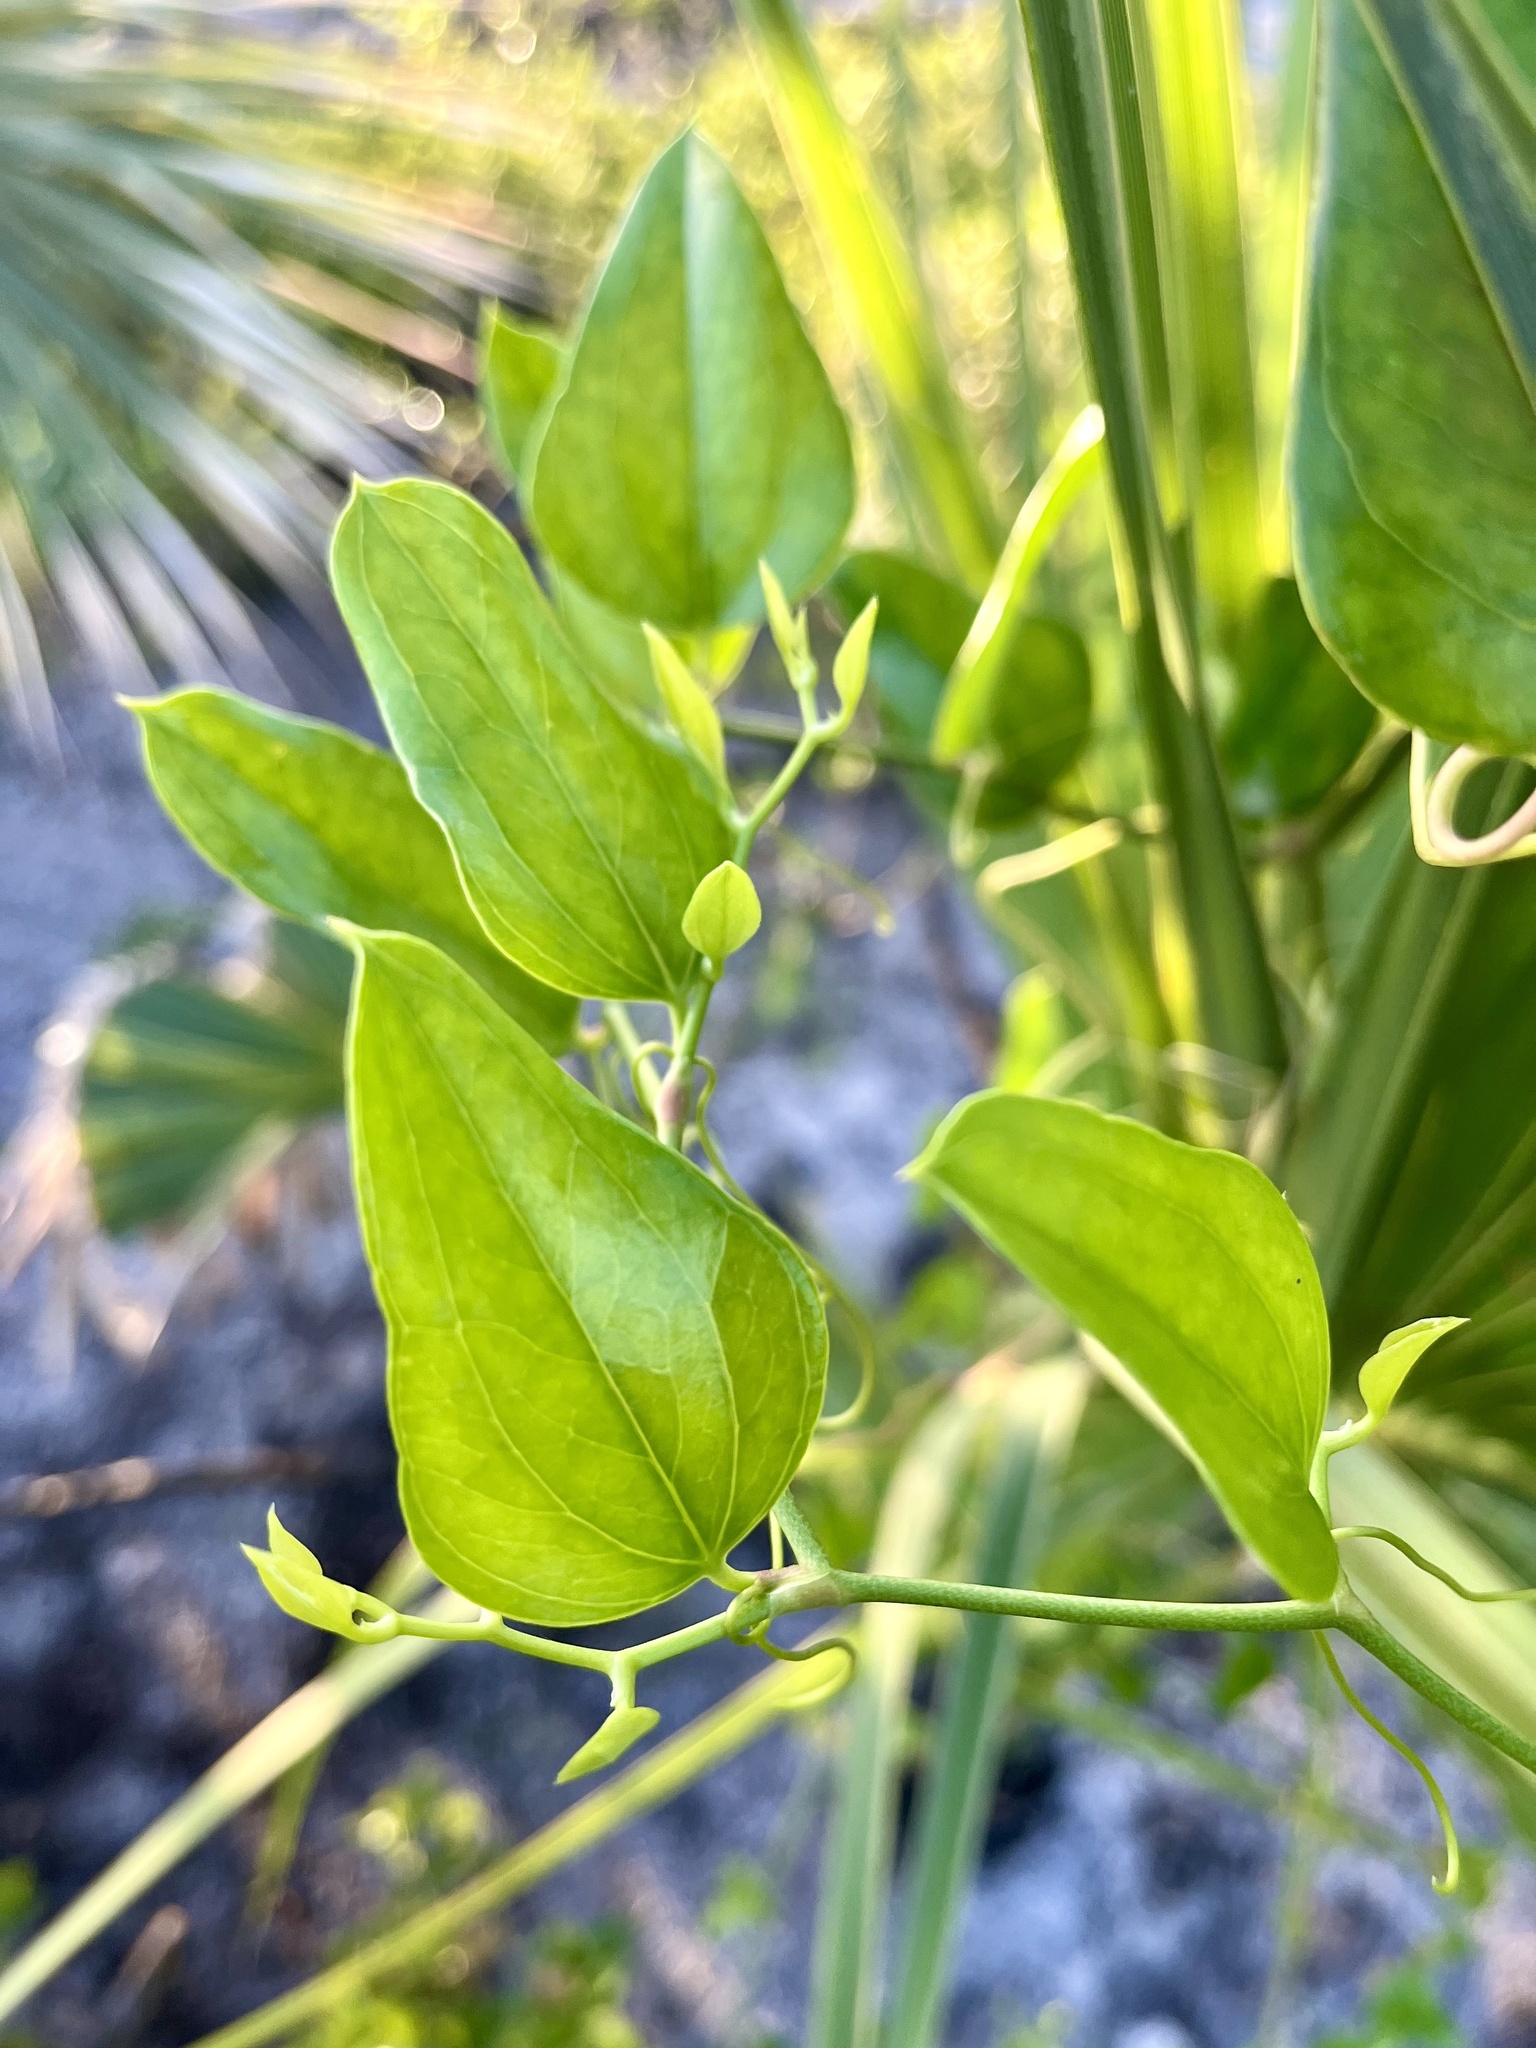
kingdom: Plantae
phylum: Tracheophyta
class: Liliopsida
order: Liliales
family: Smilacaceae
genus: Smilax
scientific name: Smilax auriculata
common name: Wild bamboo
